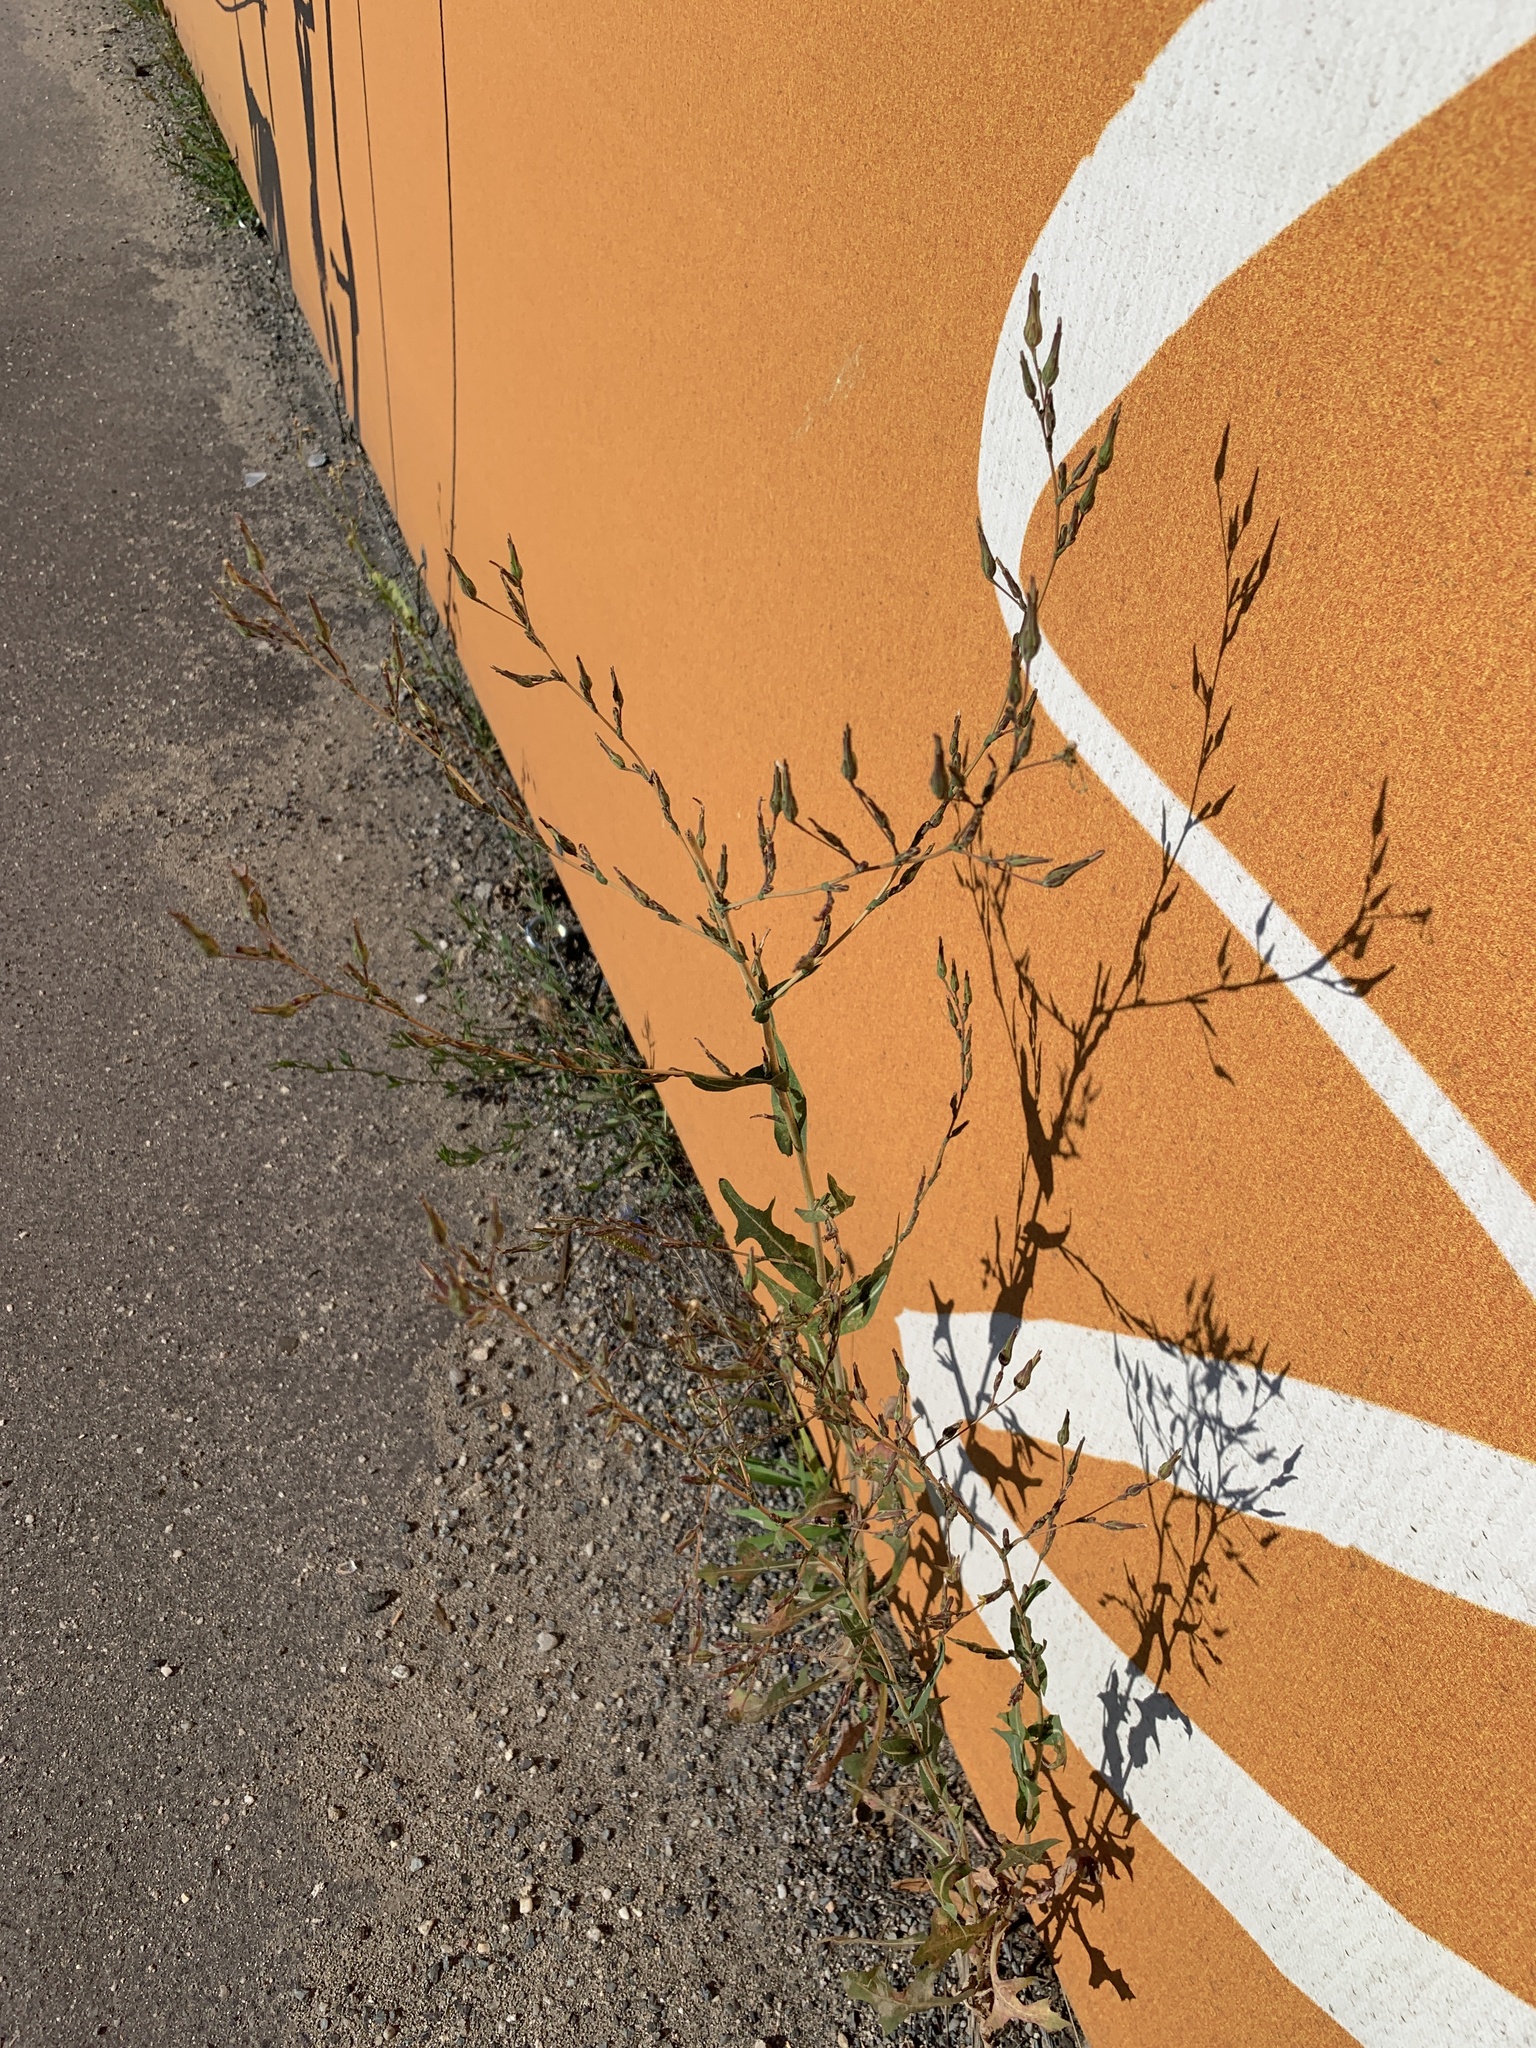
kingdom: Plantae
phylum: Tracheophyta
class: Magnoliopsida
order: Asterales
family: Asteraceae
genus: Lactuca
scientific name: Lactuca serriola
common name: Prickly lettuce
